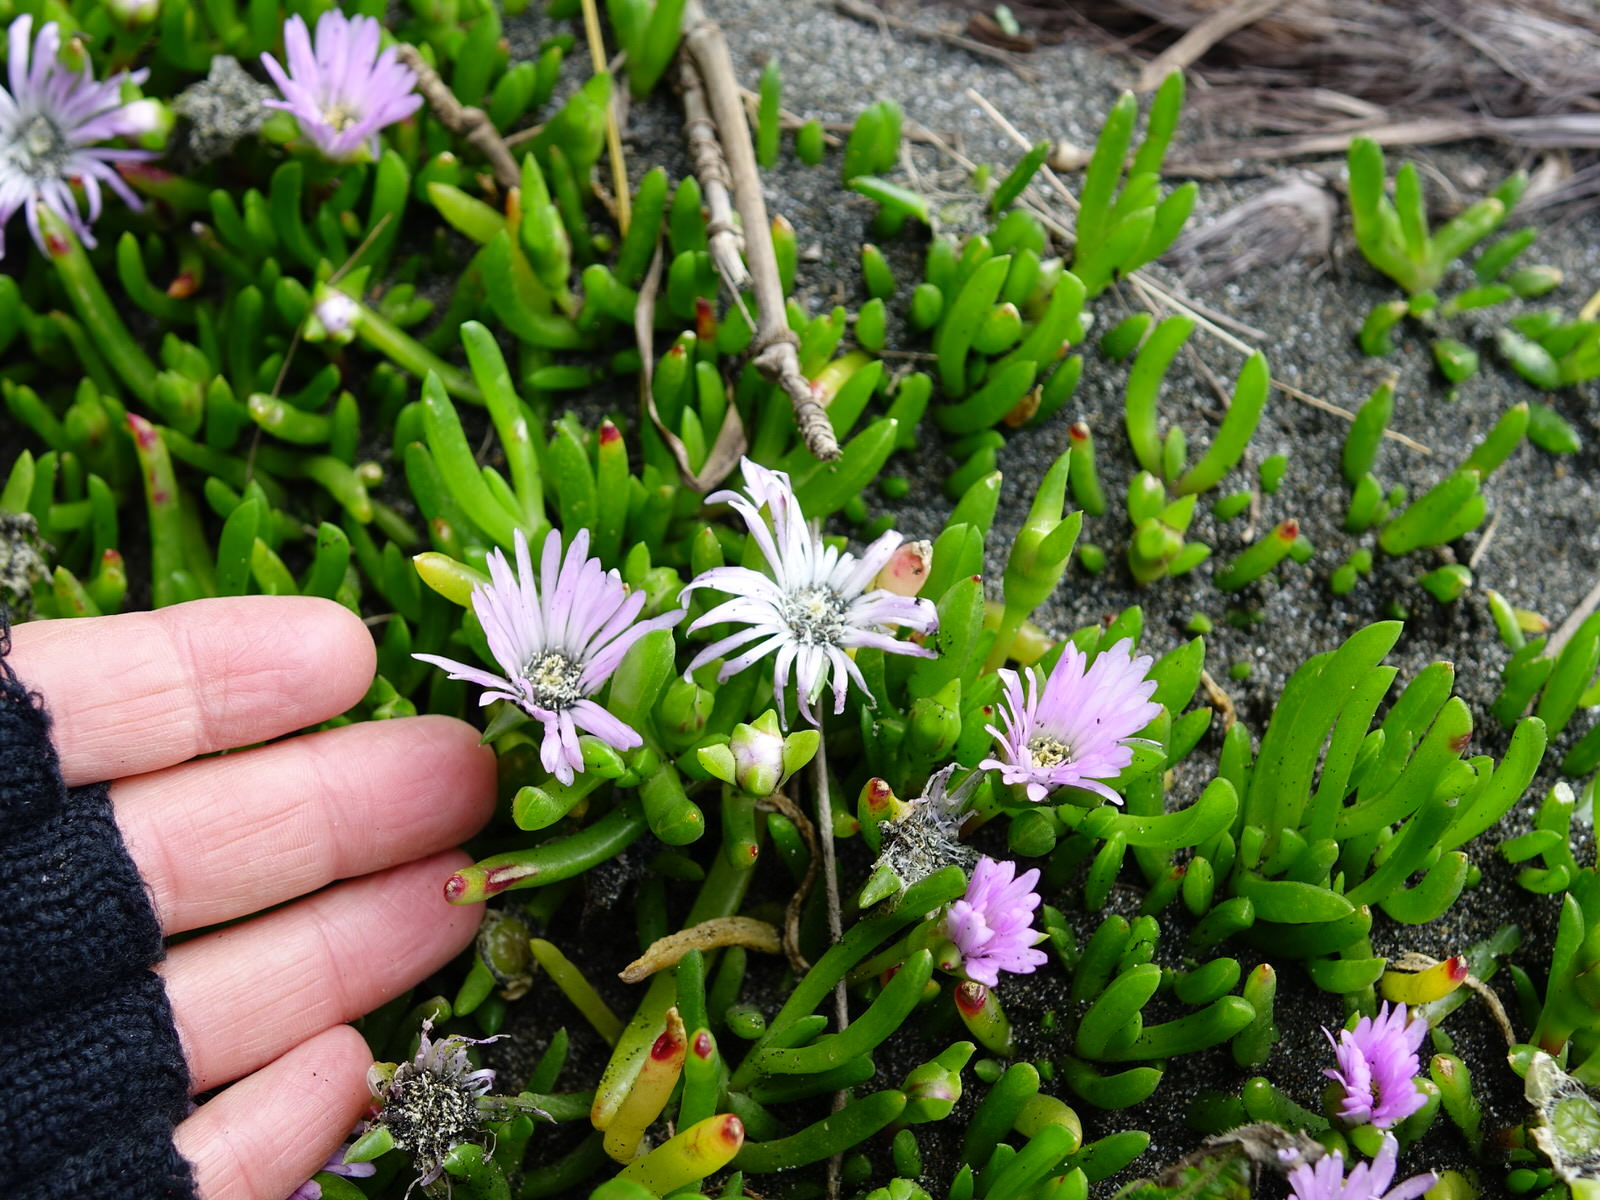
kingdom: Plantae
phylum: Tracheophyta
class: Magnoliopsida
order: Caryophyllales
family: Aizoaceae
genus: Disphyma
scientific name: Disphyma australe
